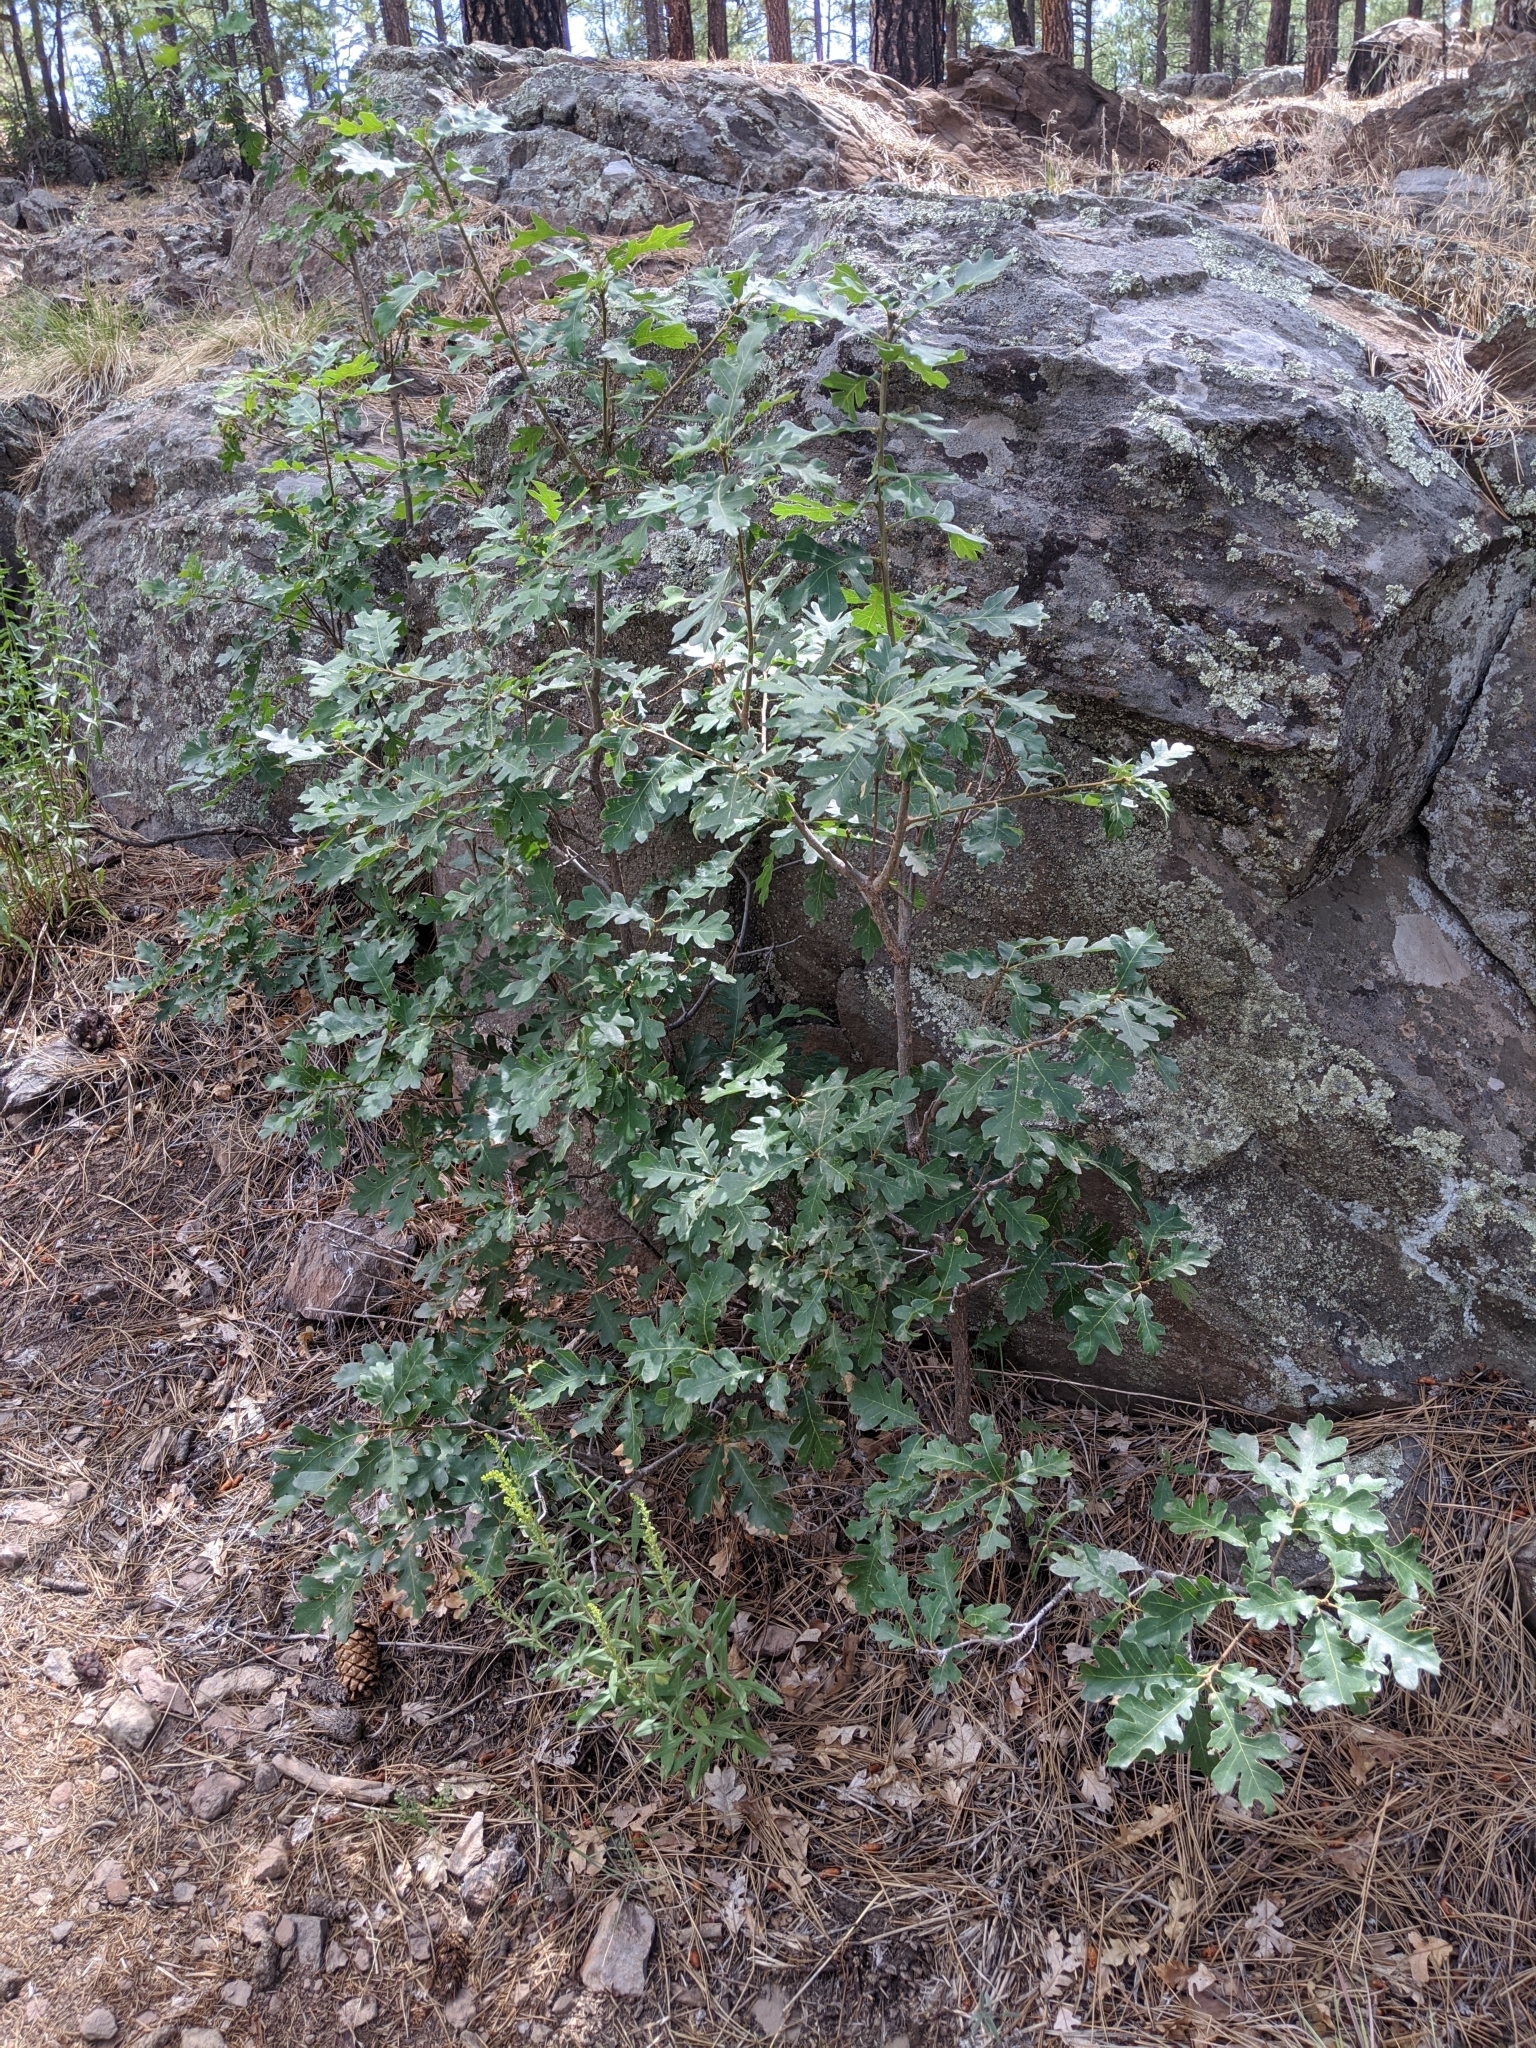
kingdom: Plantae
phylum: Tracheophyta
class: Magnoliopsida
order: Fagales
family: Fagaceae
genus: Quercus
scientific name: Quercus gambelii
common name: Gambel oak
